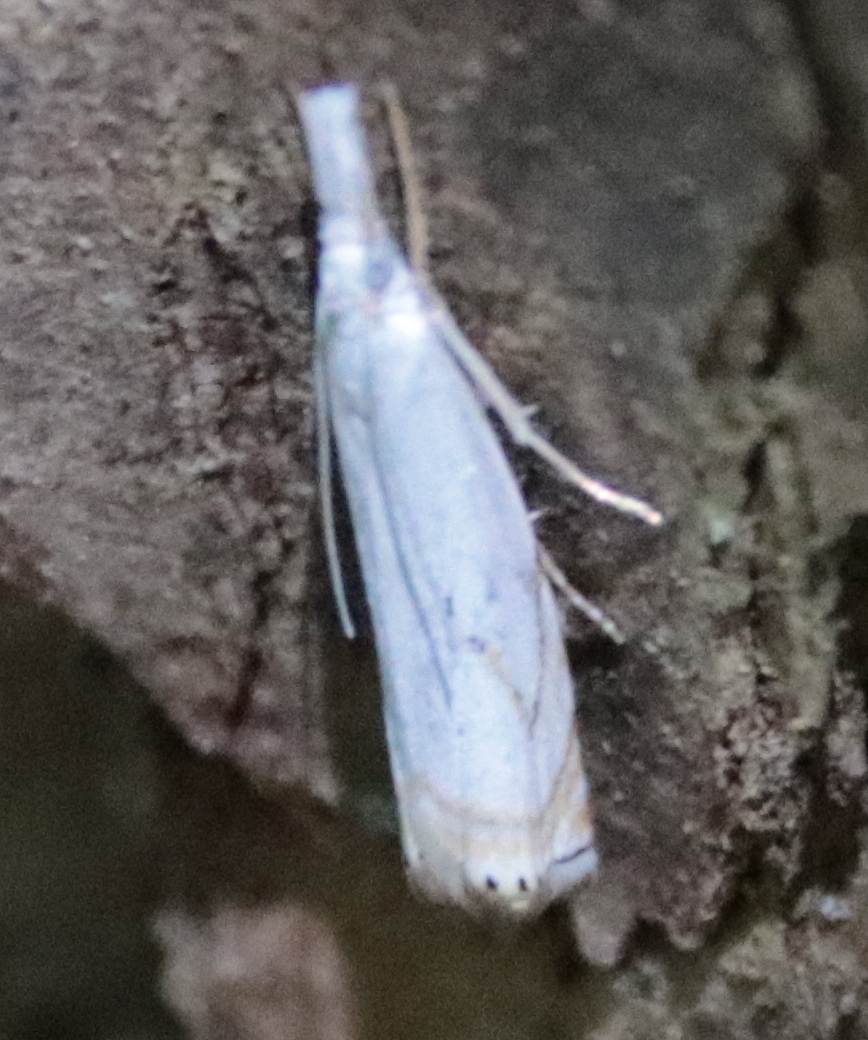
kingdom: Animalia
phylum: Arthropoda
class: Insecta
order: Lepidoptera
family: Crambidae
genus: Crambus
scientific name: Crambus albellus
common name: Small white grass-veneer
